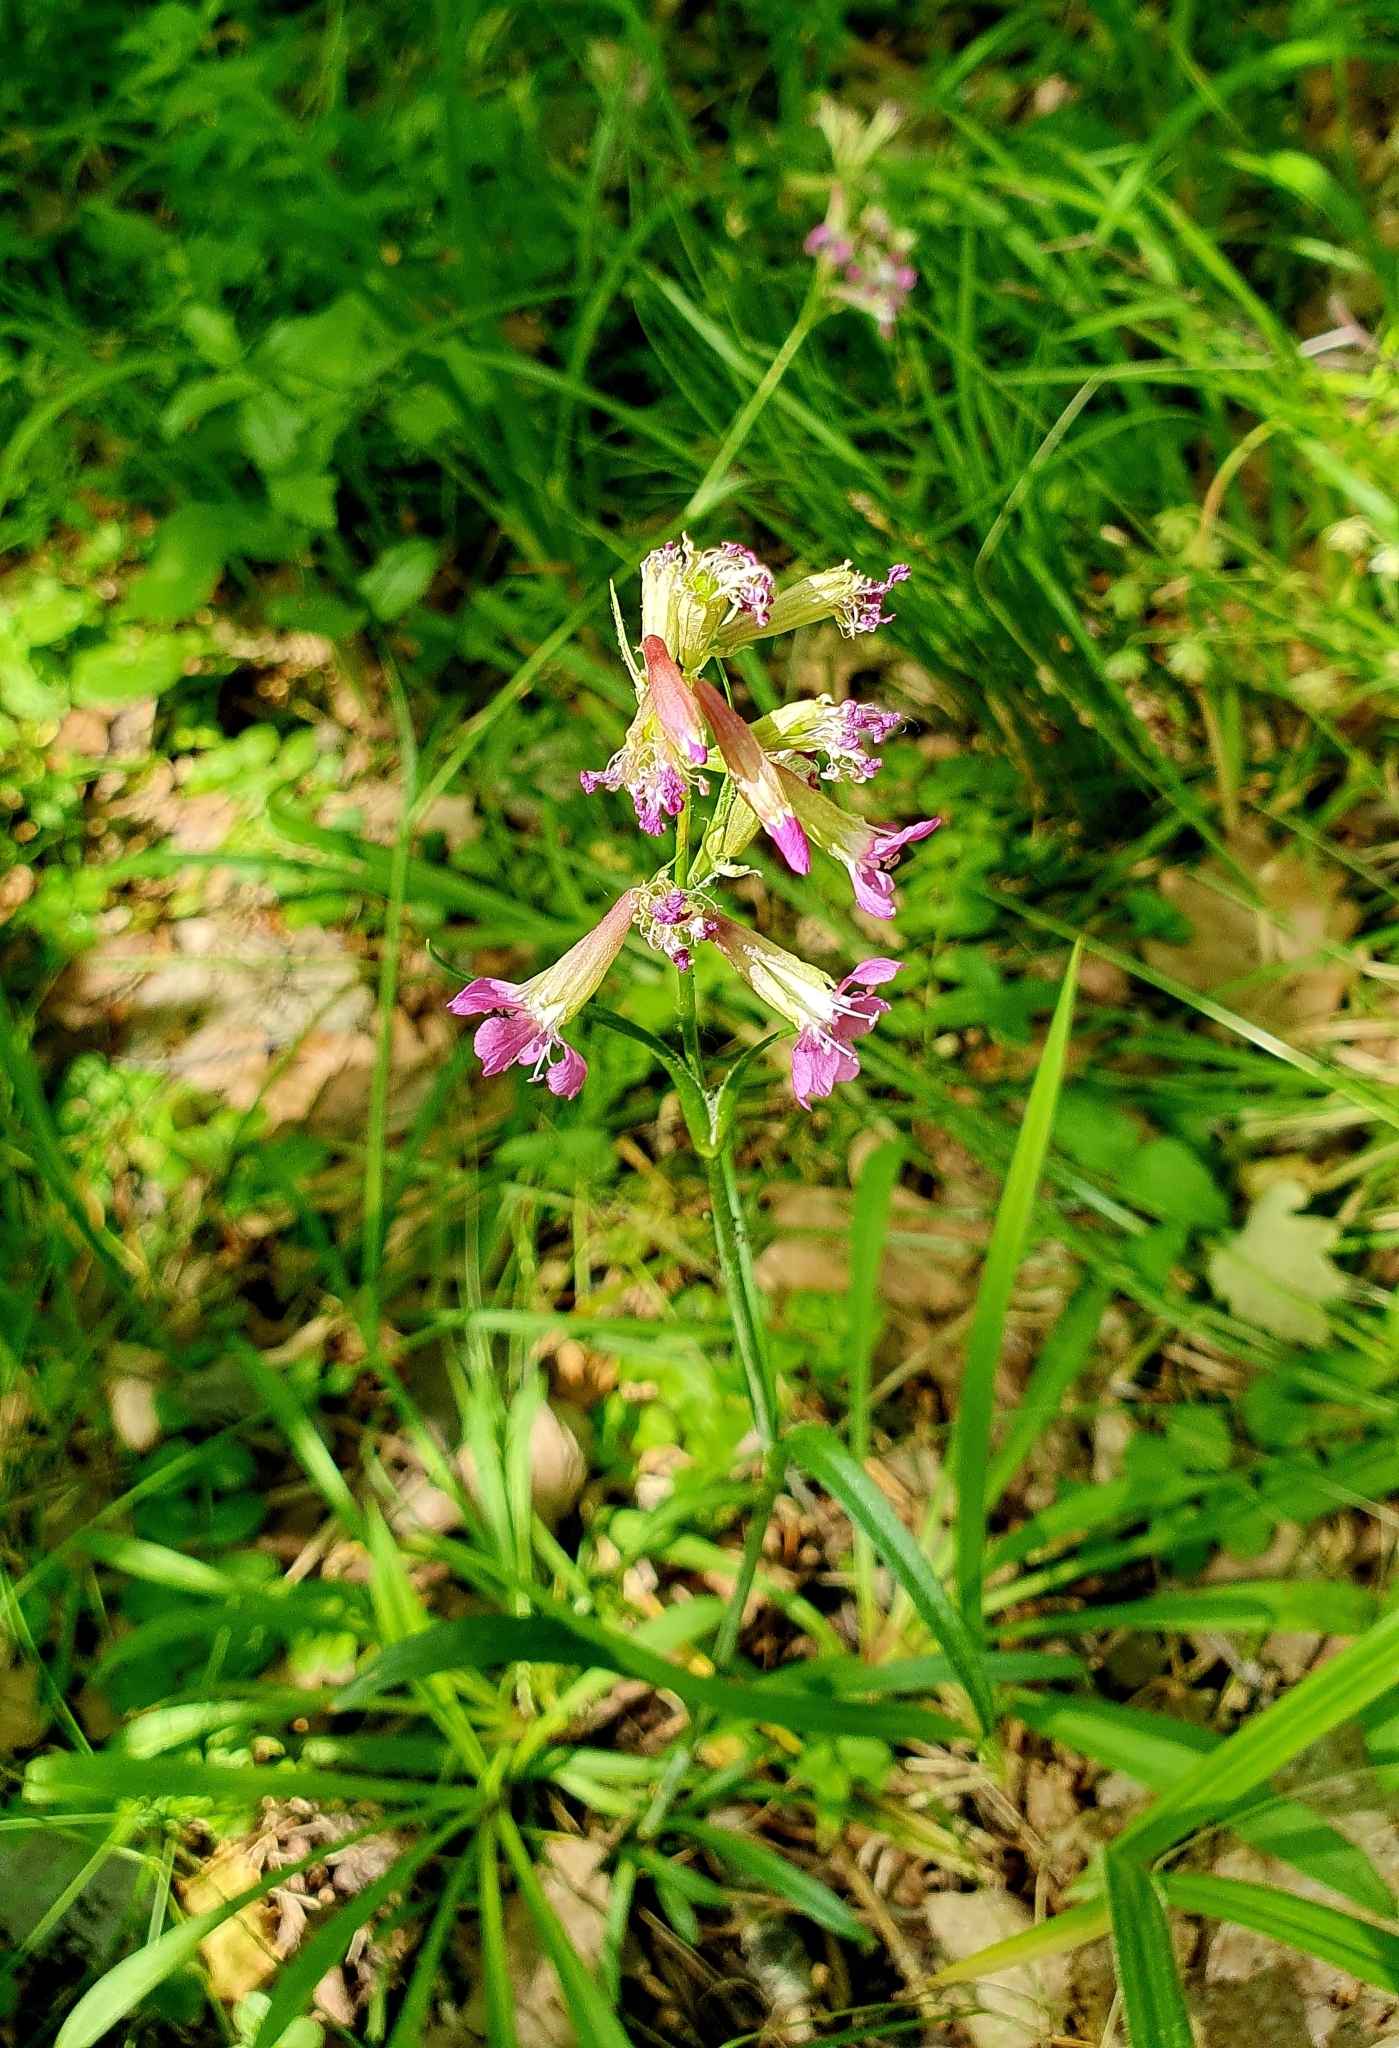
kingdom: Plantae
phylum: Tracheophyta
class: Magnoliopsida
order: Caryophyllales
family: Caryophyllaceae
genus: Viscaria
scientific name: Viscaria vulgaris
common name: Clammy campion
